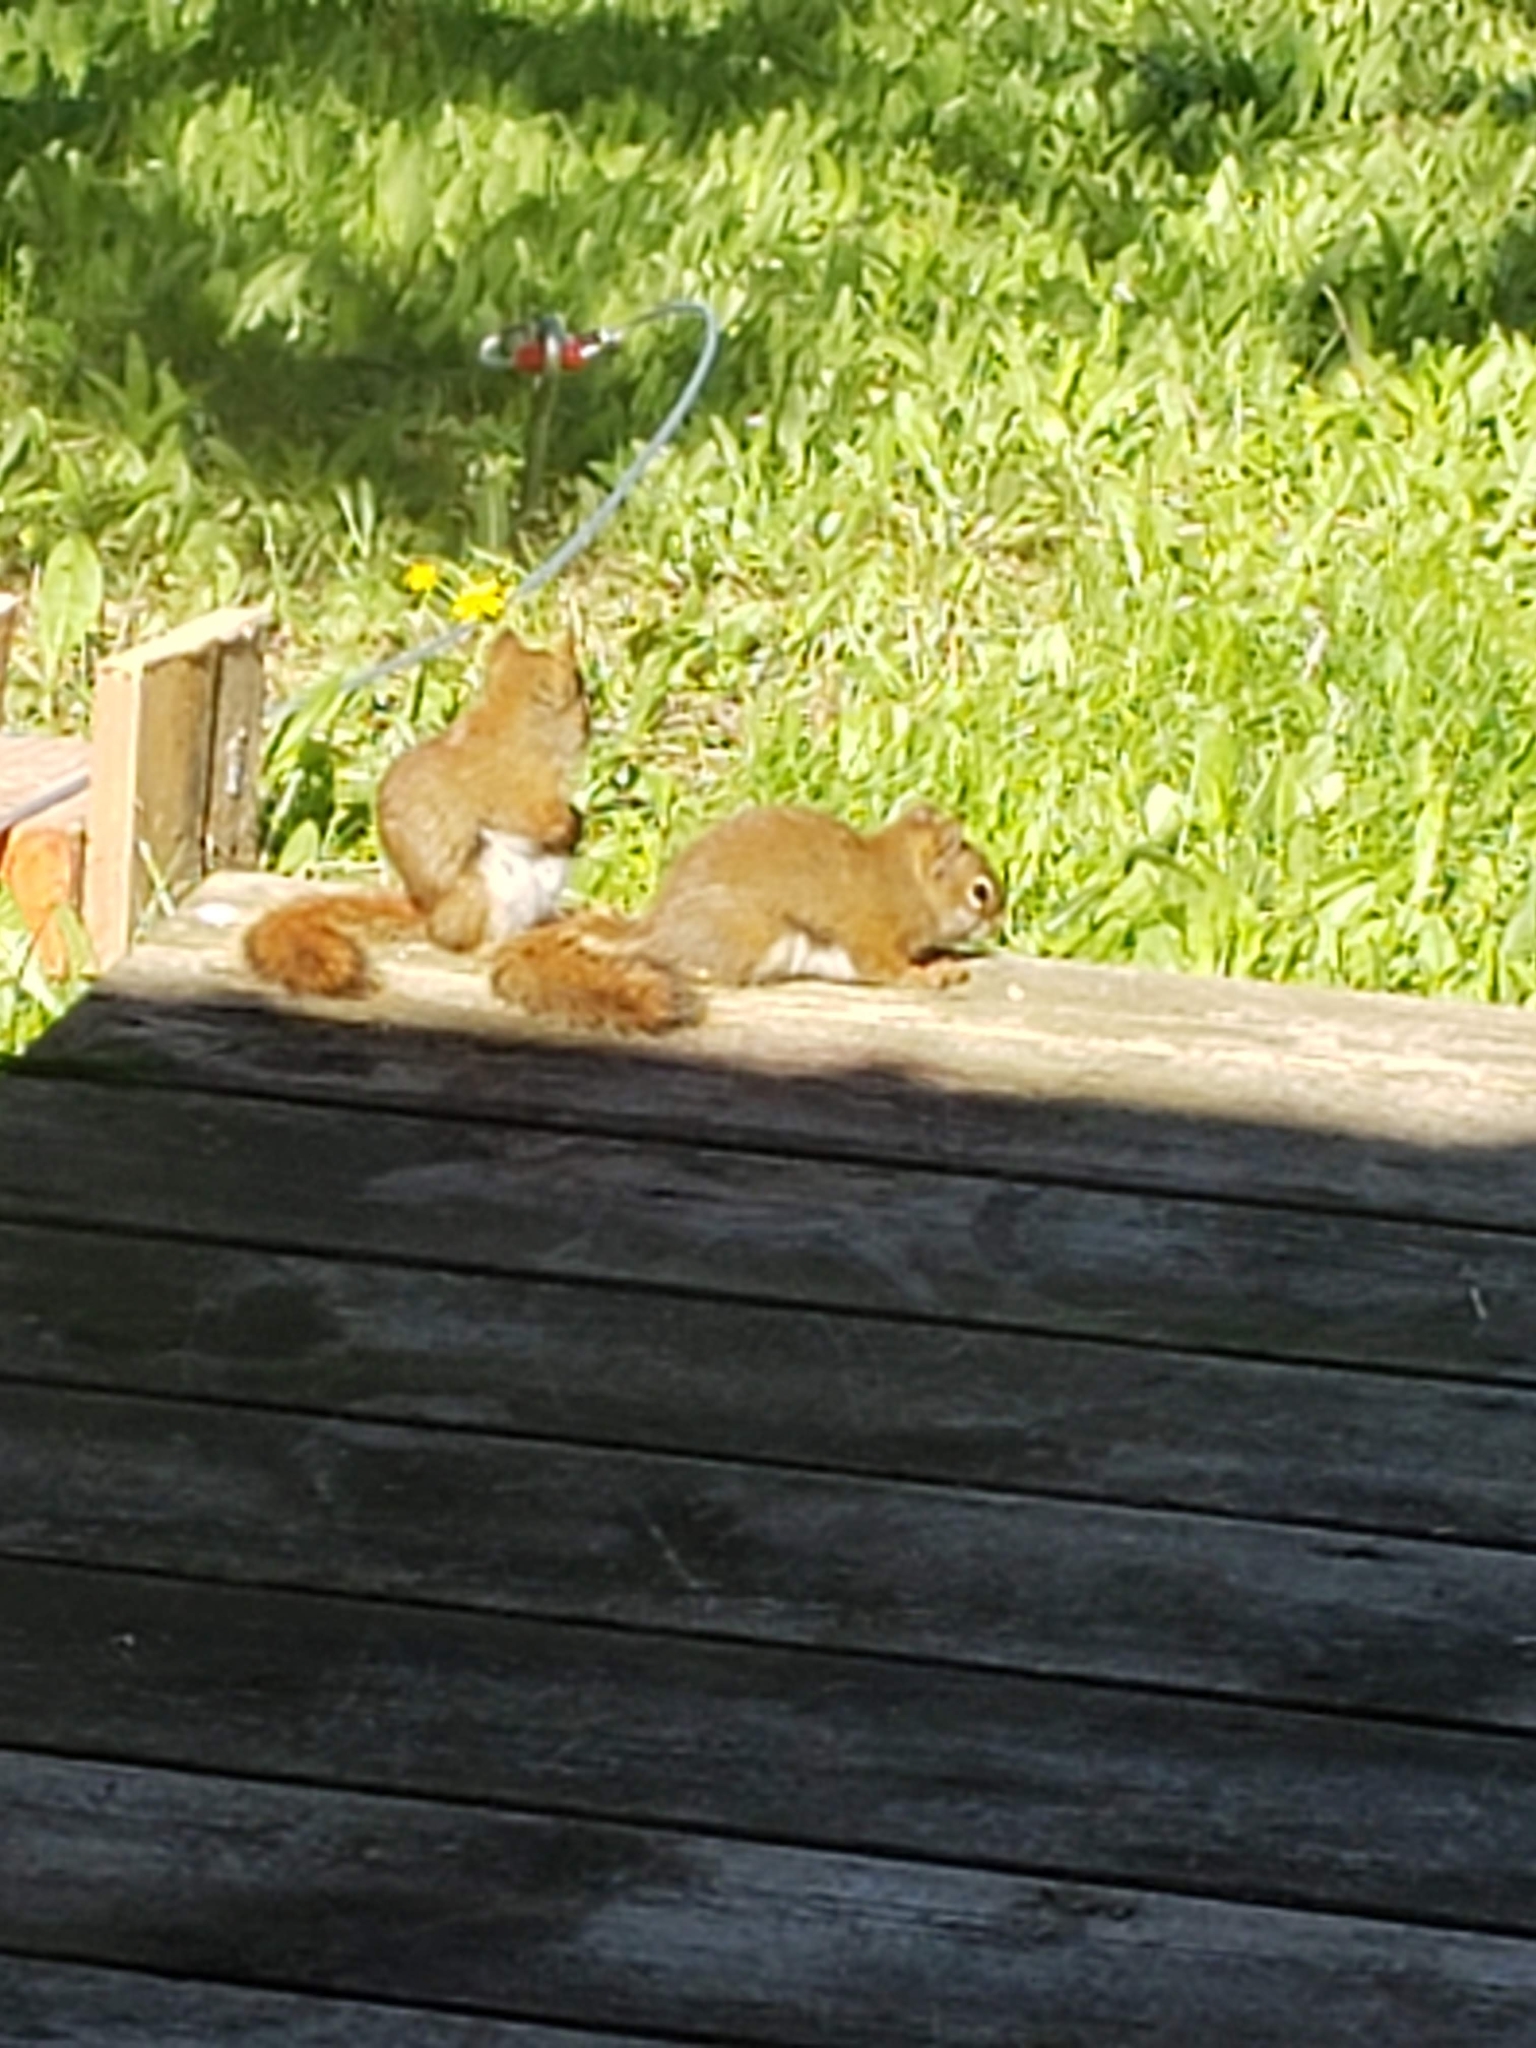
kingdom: Animalia
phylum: Chordata
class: Mammalia
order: Rodentia
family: Sciuridae
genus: Tamiasciurus
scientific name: Tamiasciurus hudsonicus
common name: Red squirrel
